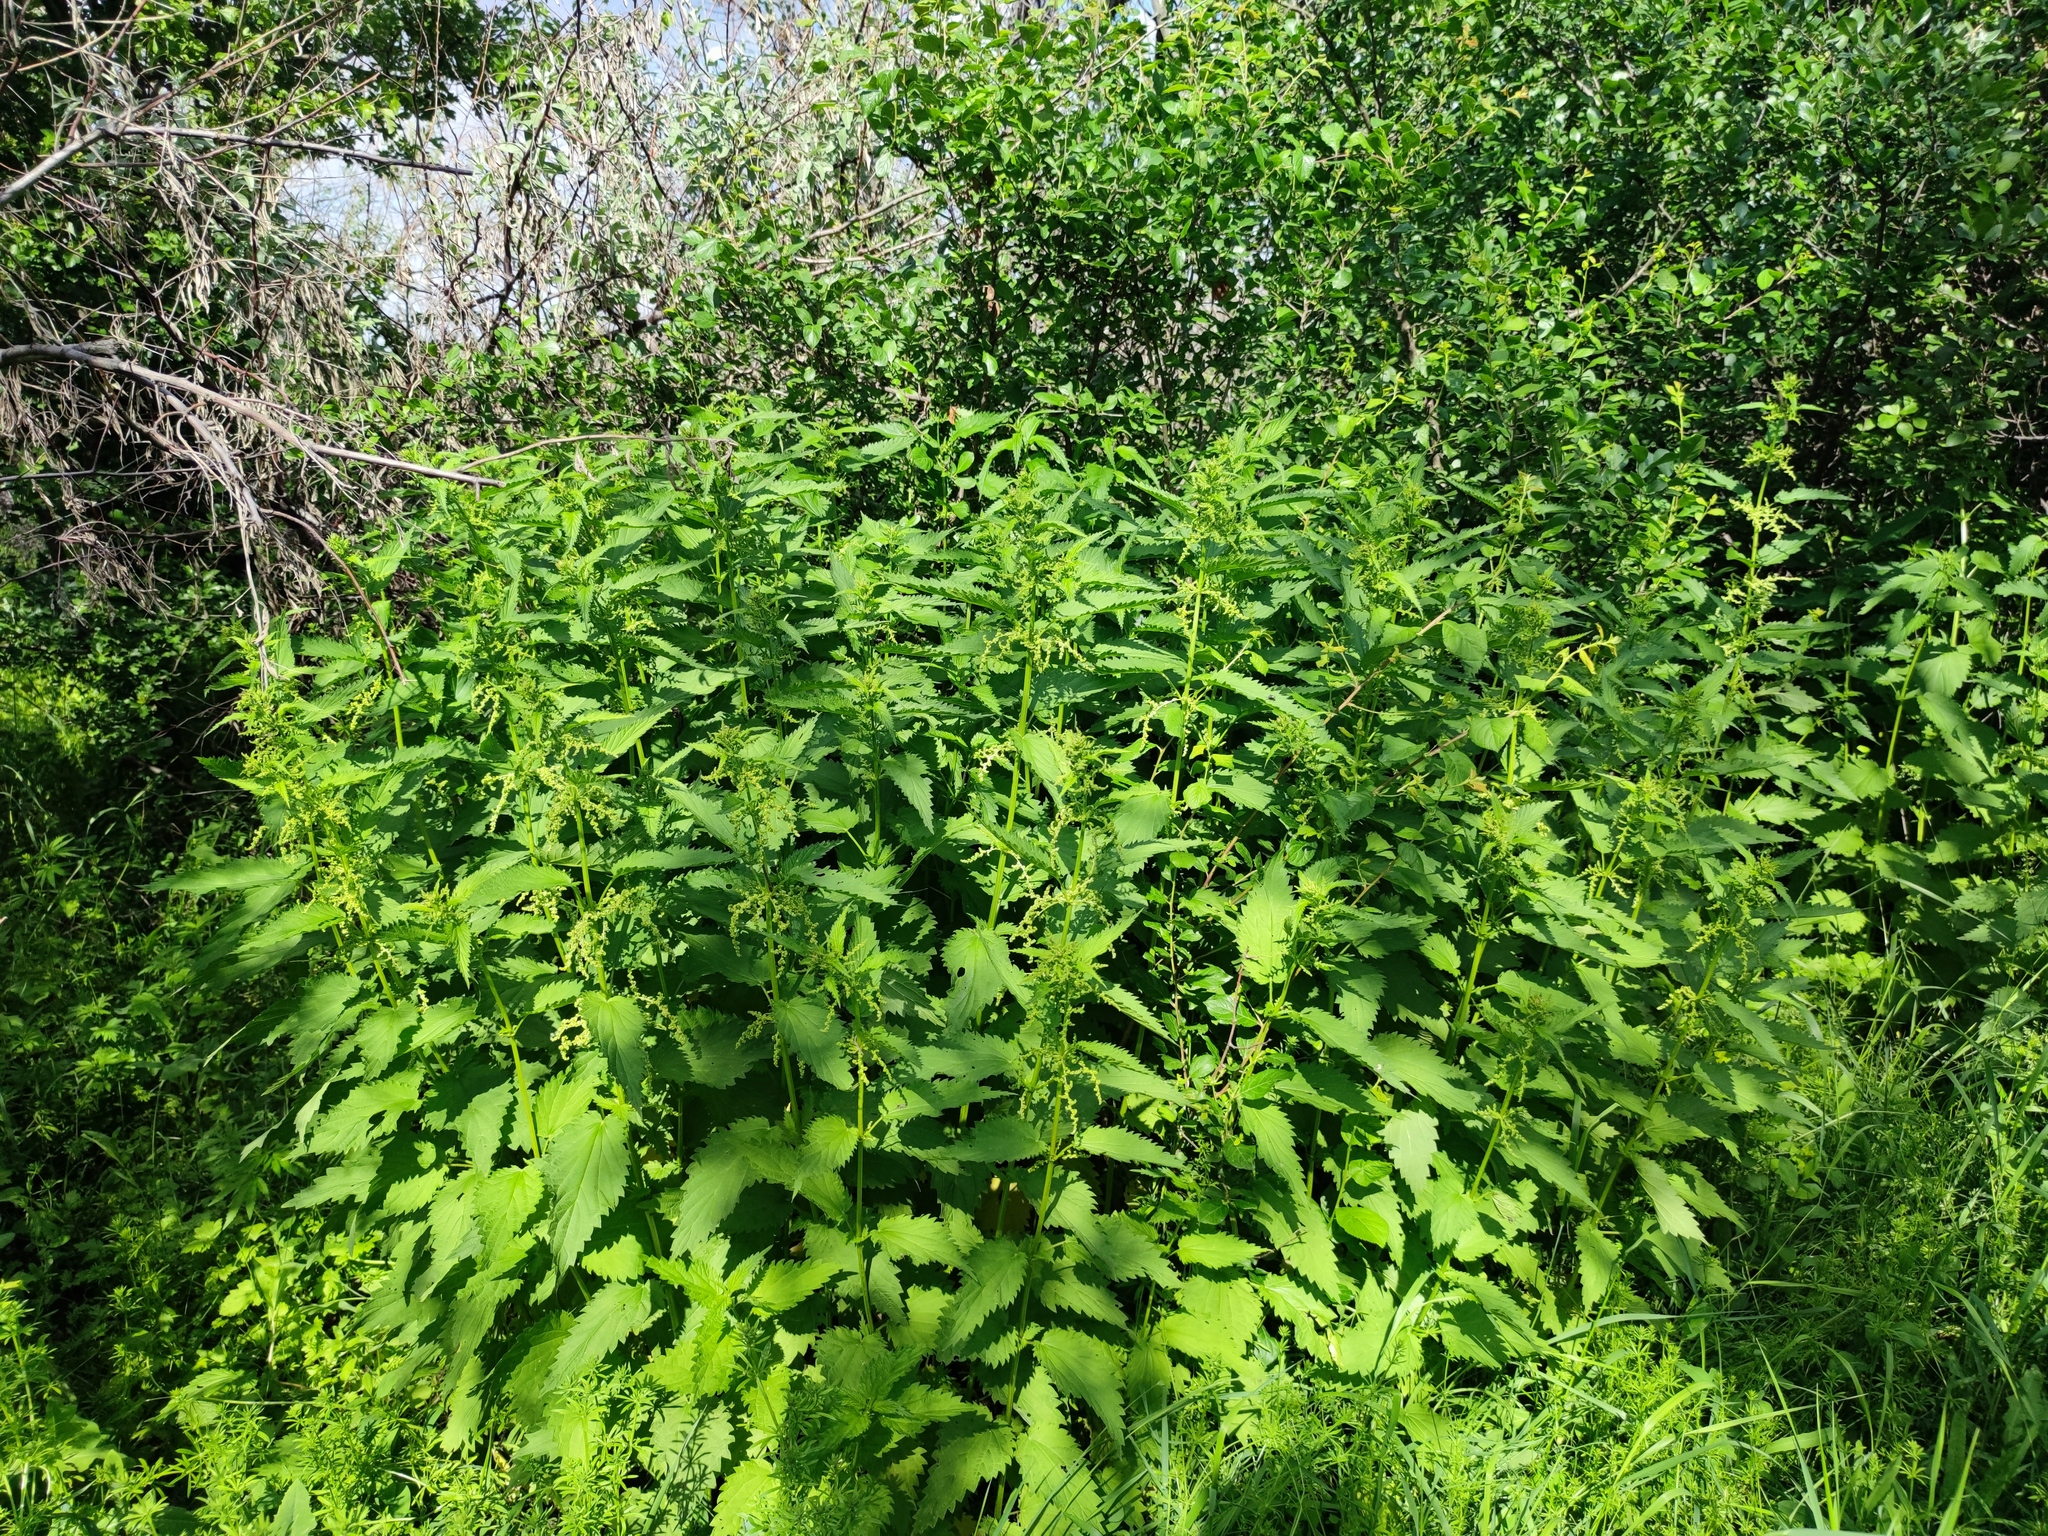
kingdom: Plantae
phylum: Tracheophyta
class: Magnoliopsida
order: Rosales
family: Urticaceae
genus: Urtica
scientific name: Urtica dioica
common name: Common nettle
